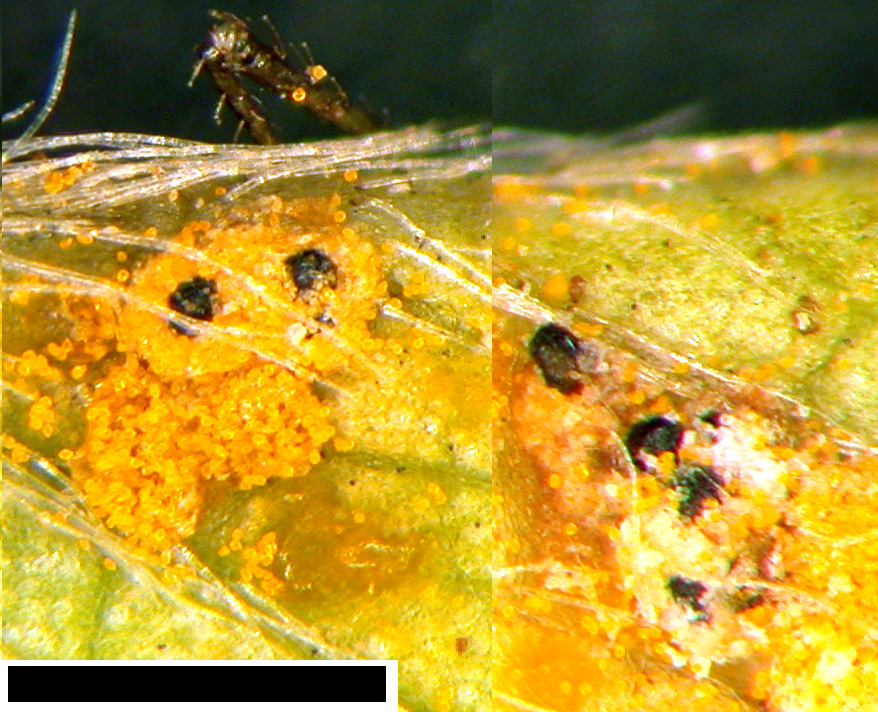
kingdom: Fungi
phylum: Ascomycota
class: Dothideomycetes
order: Pleosporales
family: Phaeosphaeriaceae
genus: Sphaerellopsis
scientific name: Sphaerellopsis filum
